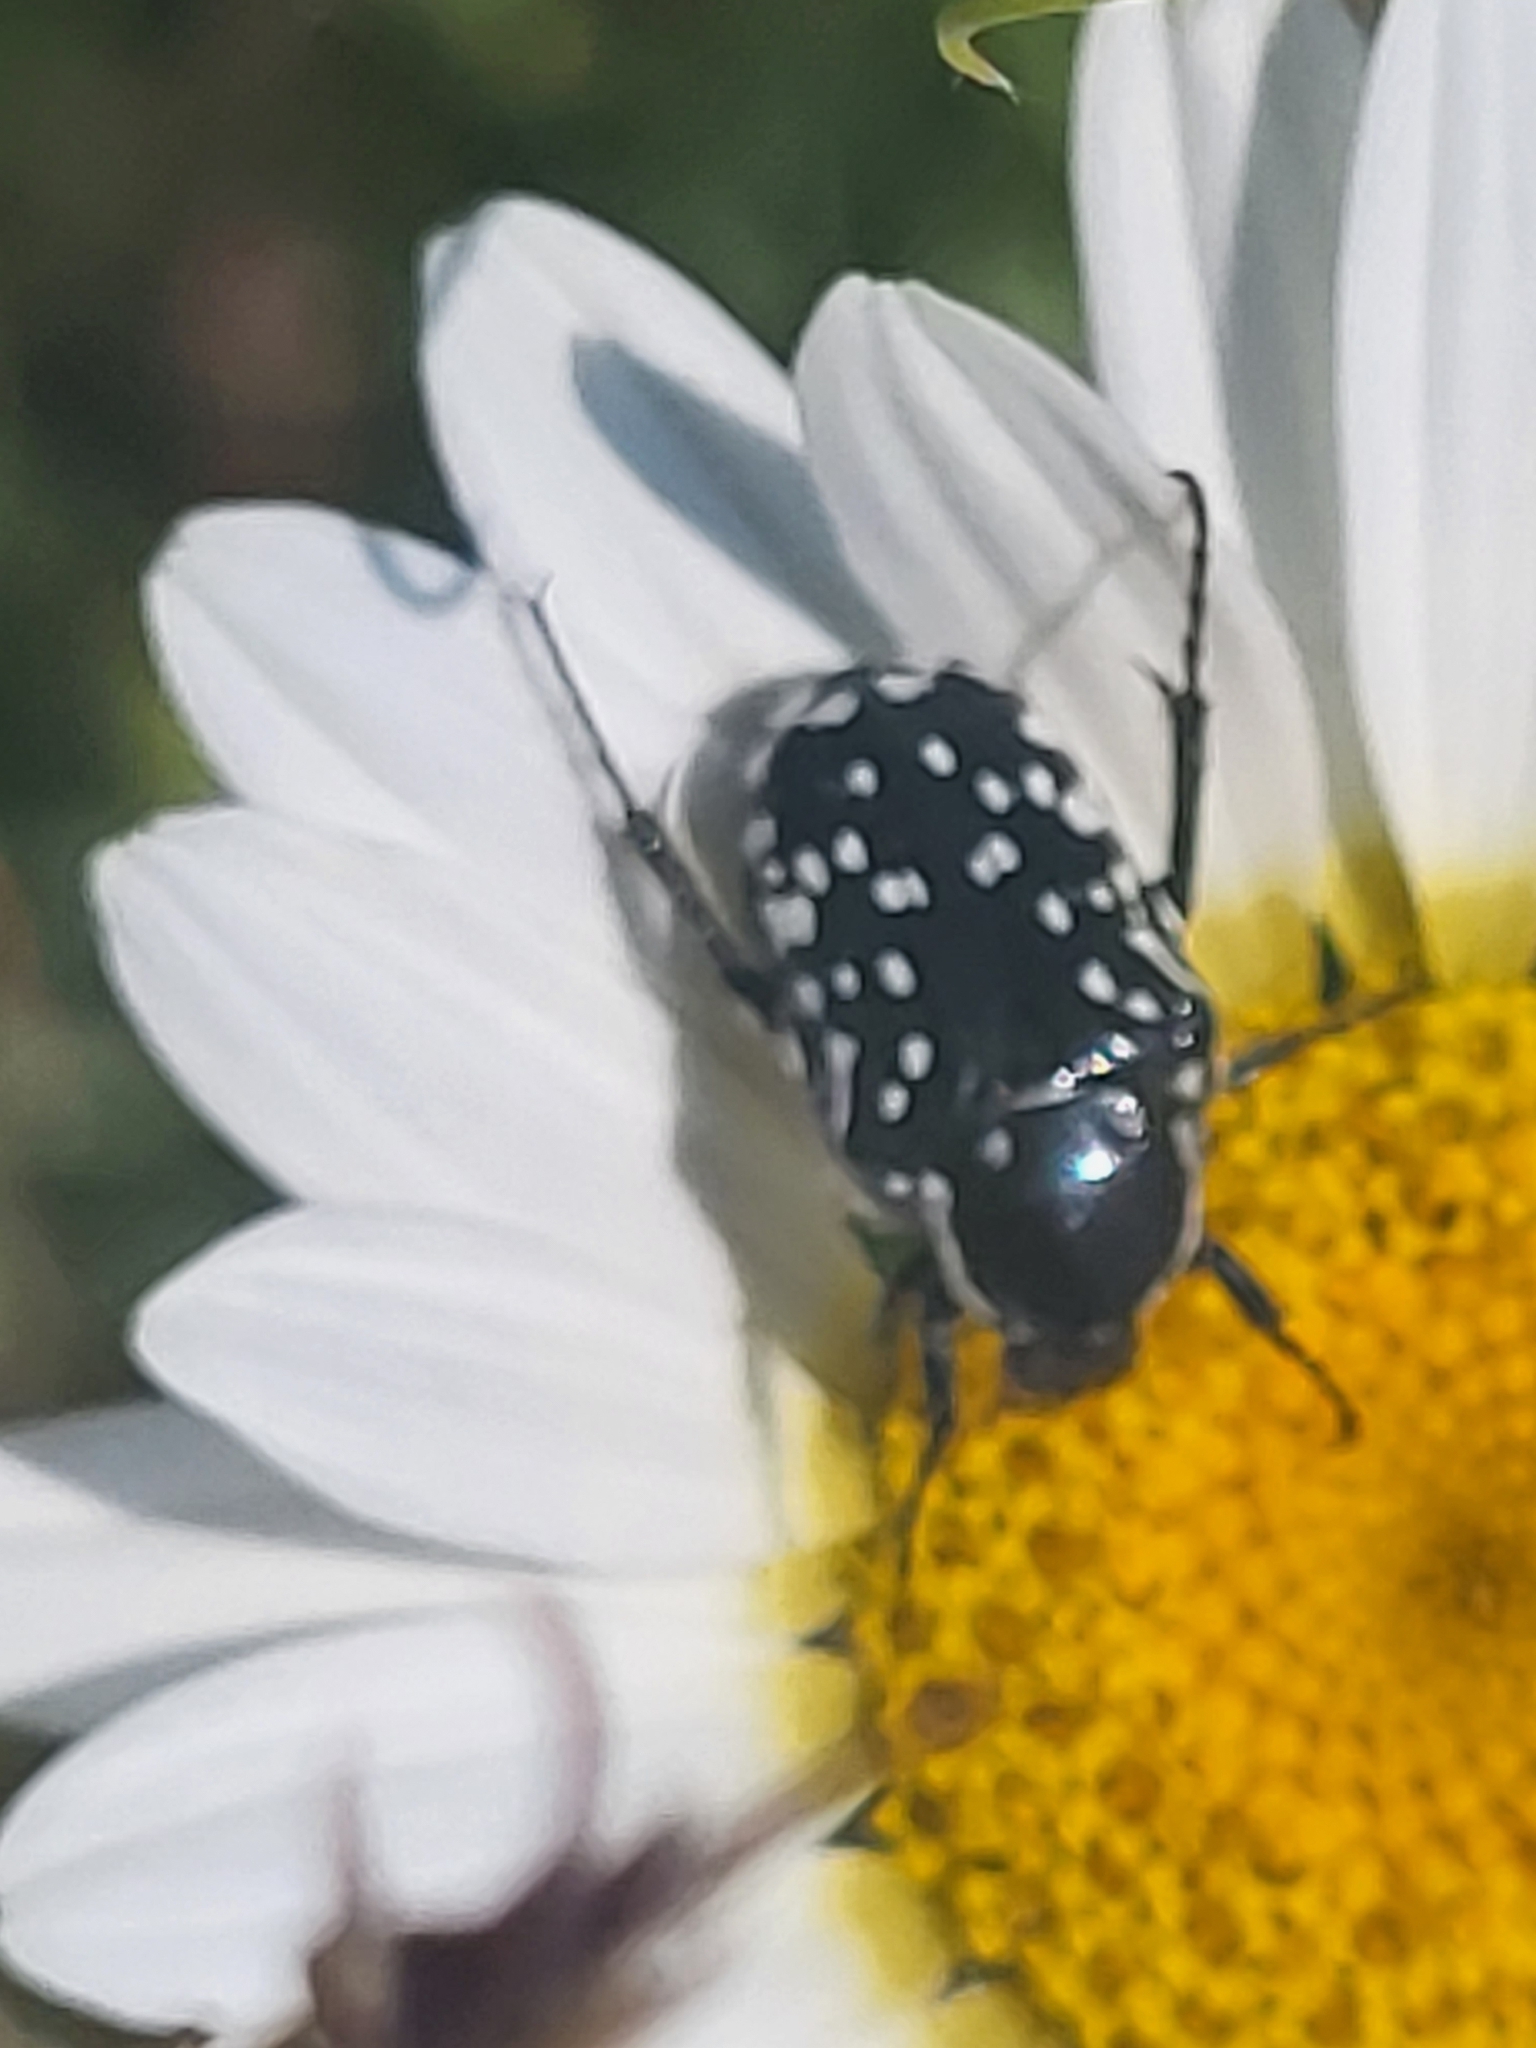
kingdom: Animalia
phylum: Arthropoda
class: Insecta
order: Coleoptera
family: Scarabaeidae
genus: Oxythyrea
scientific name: Oxythyrea cinctella
